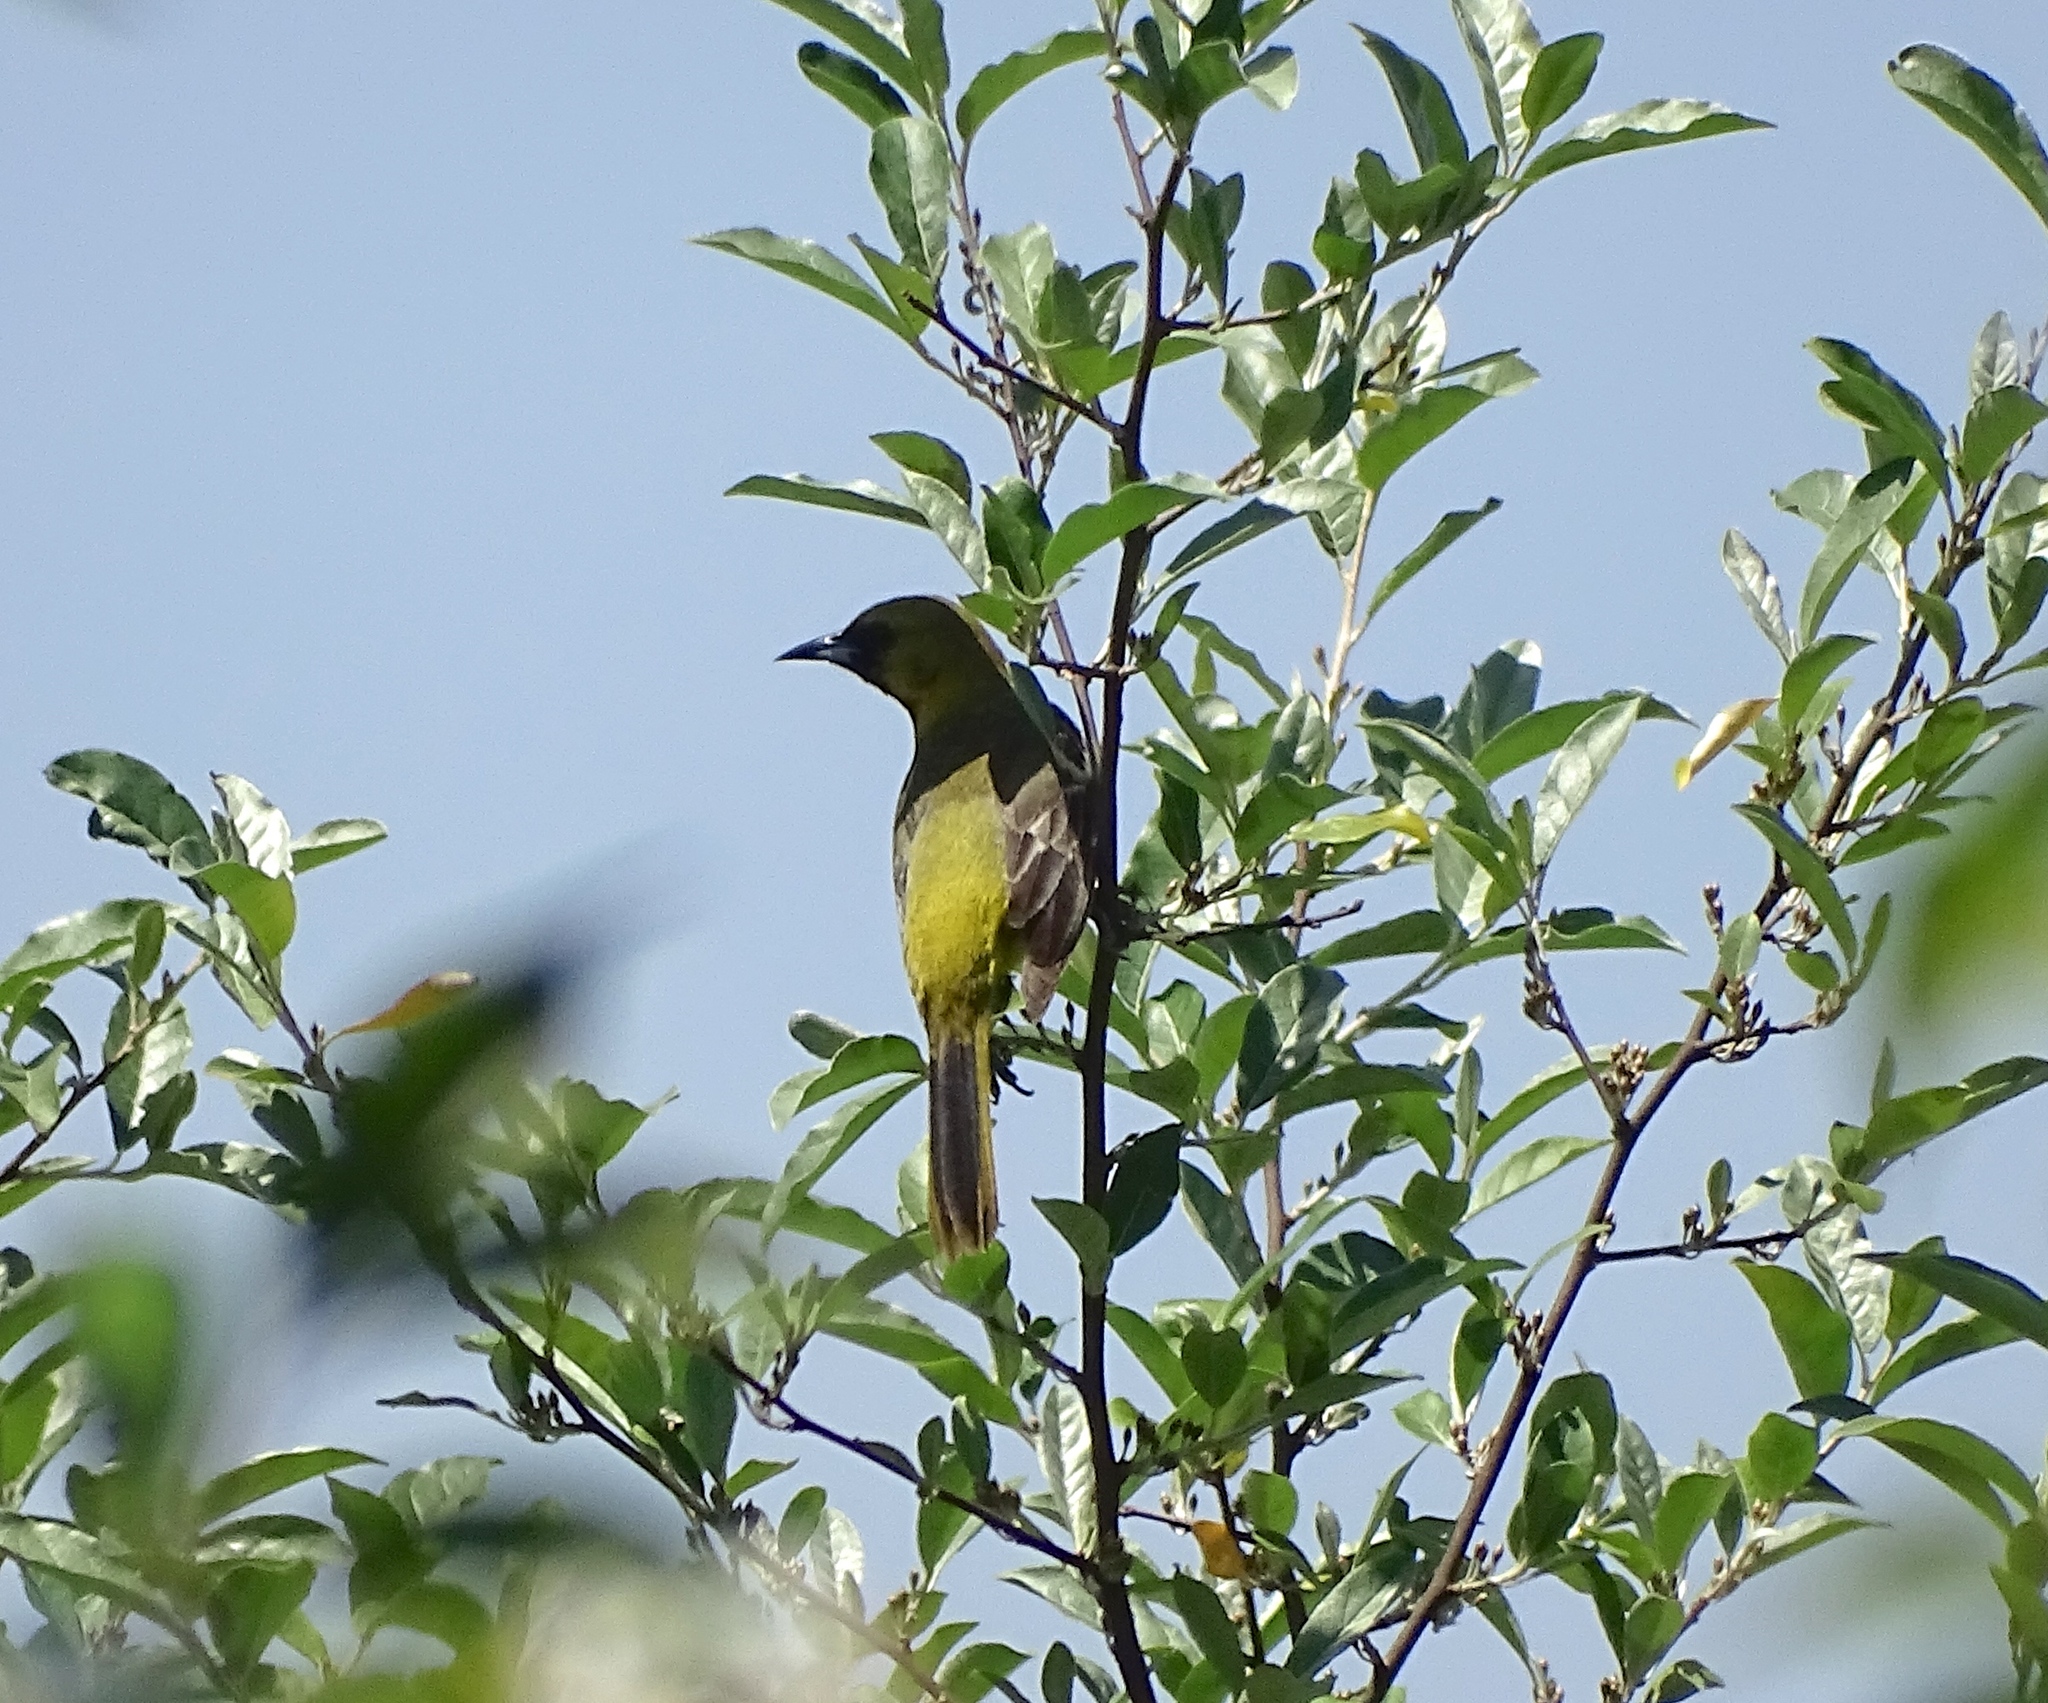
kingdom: Animalia
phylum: Chordata
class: Aves
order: Passeriformes
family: Icteridae
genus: Icterus
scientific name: Icterus spurius
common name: Orchard oriole
